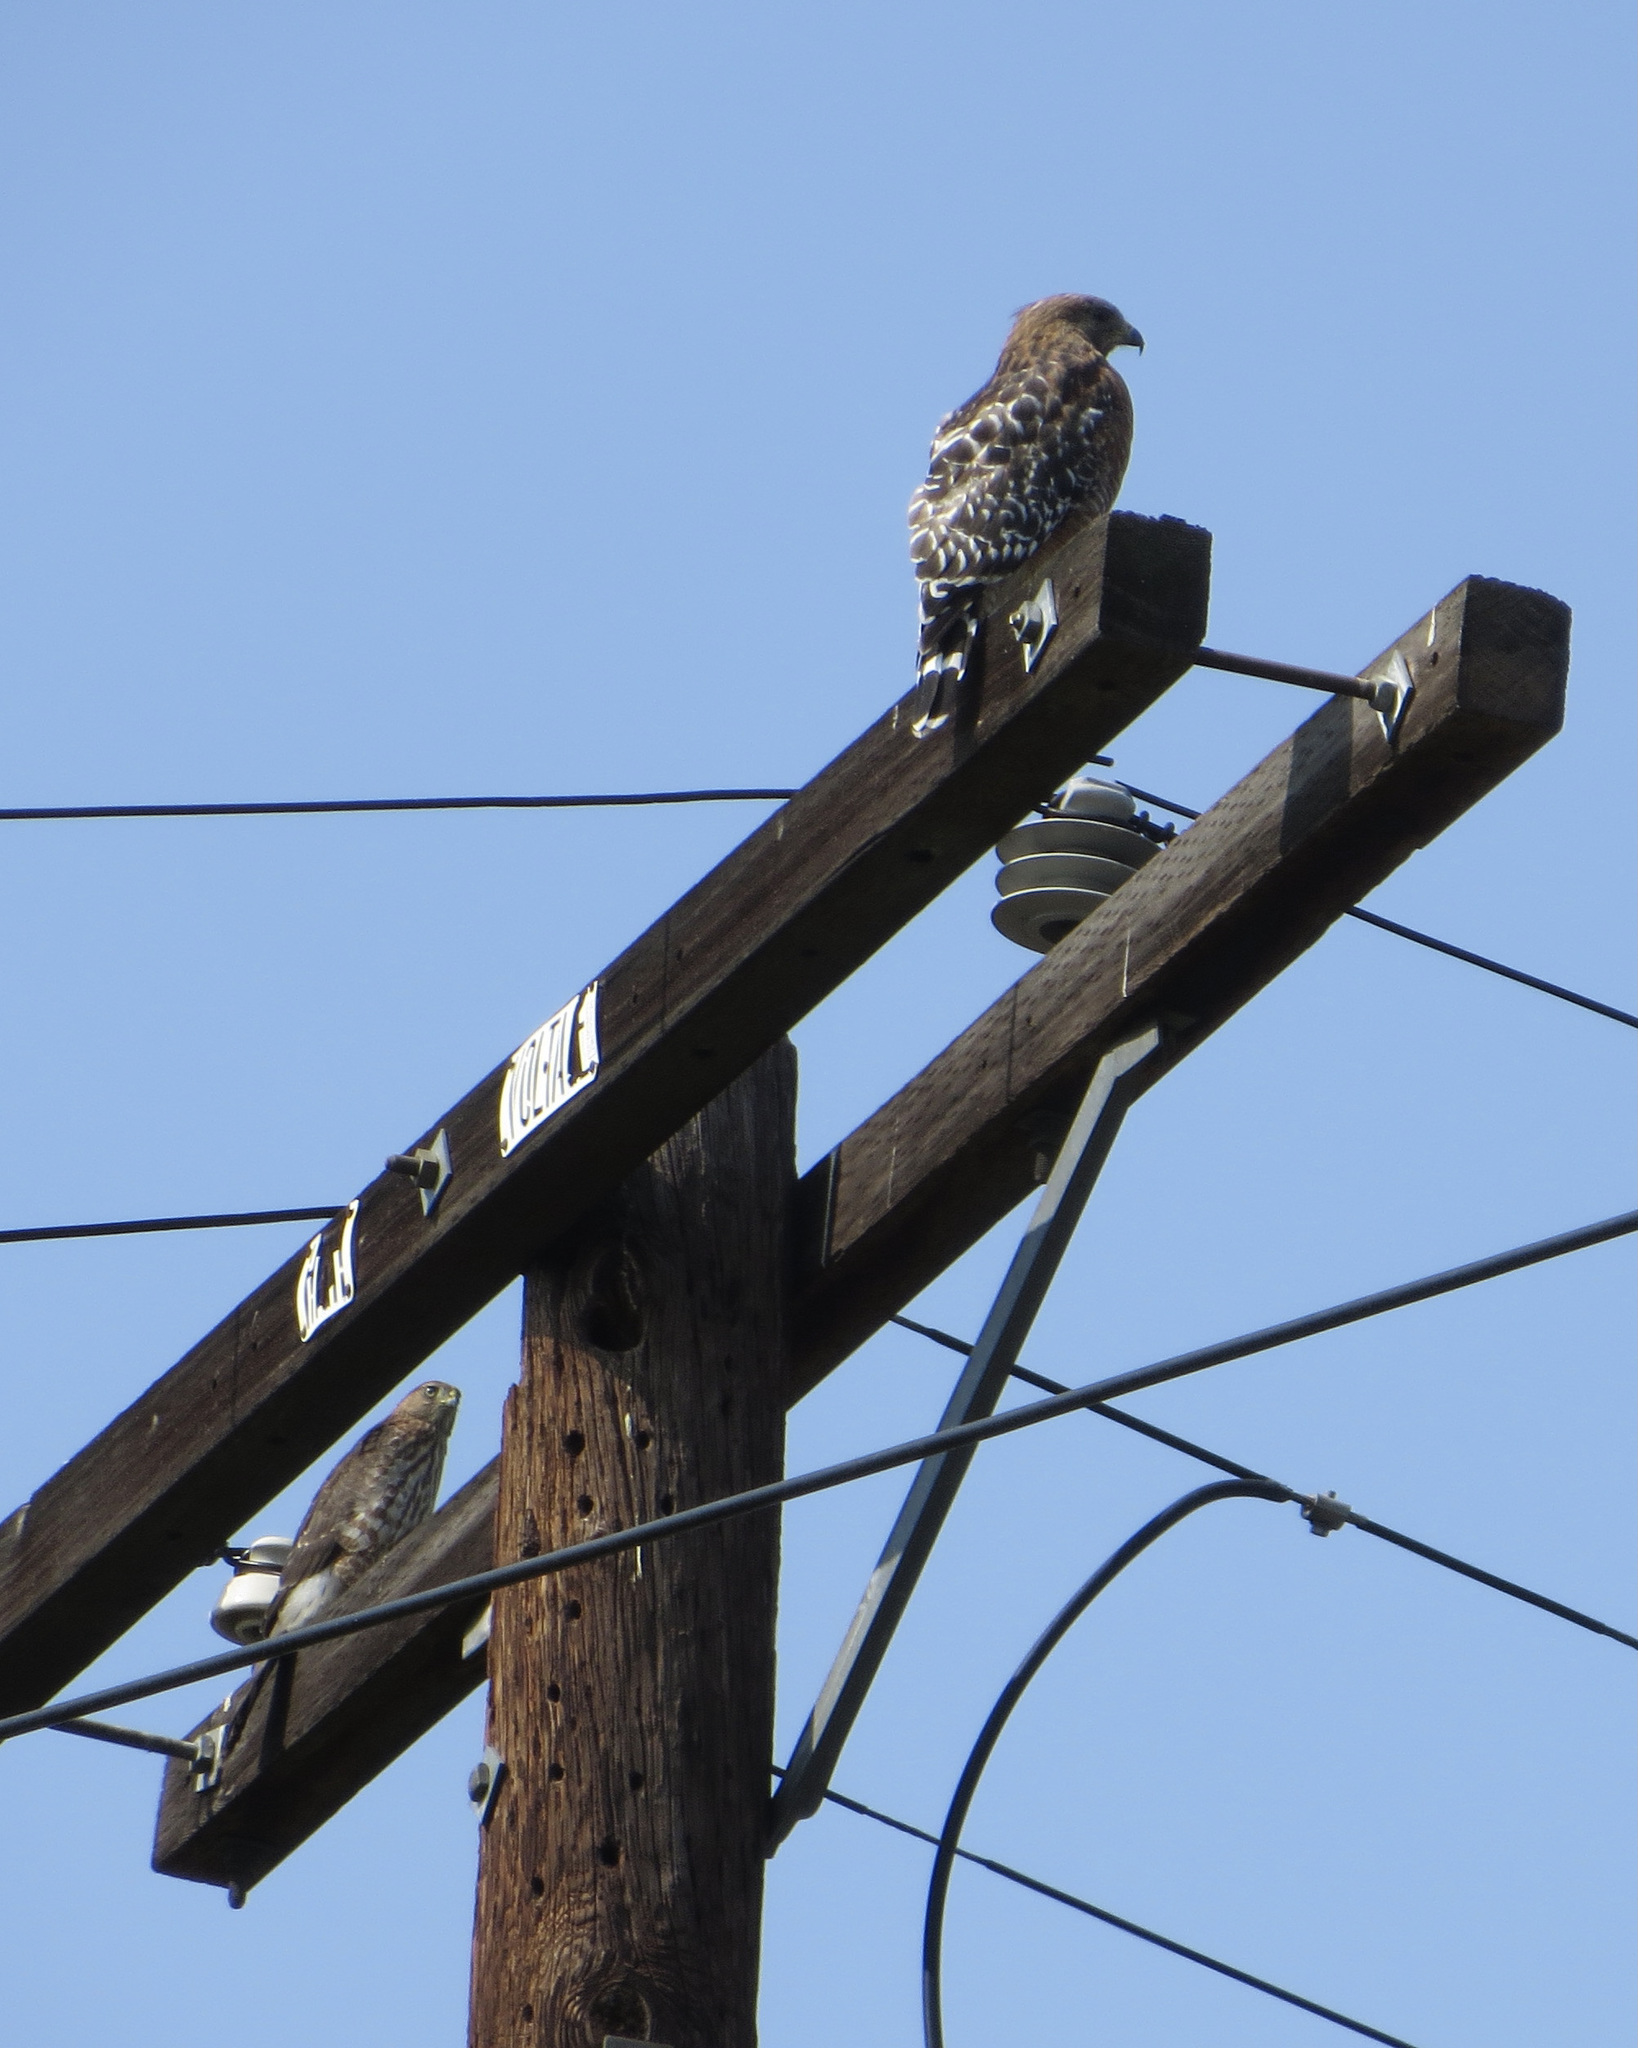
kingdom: Animalia
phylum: Chordata
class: Aves
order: Accipitriformes
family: Accipitridae
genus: Buteo
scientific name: Buteo lineatus
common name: Red-shouldered hawk
